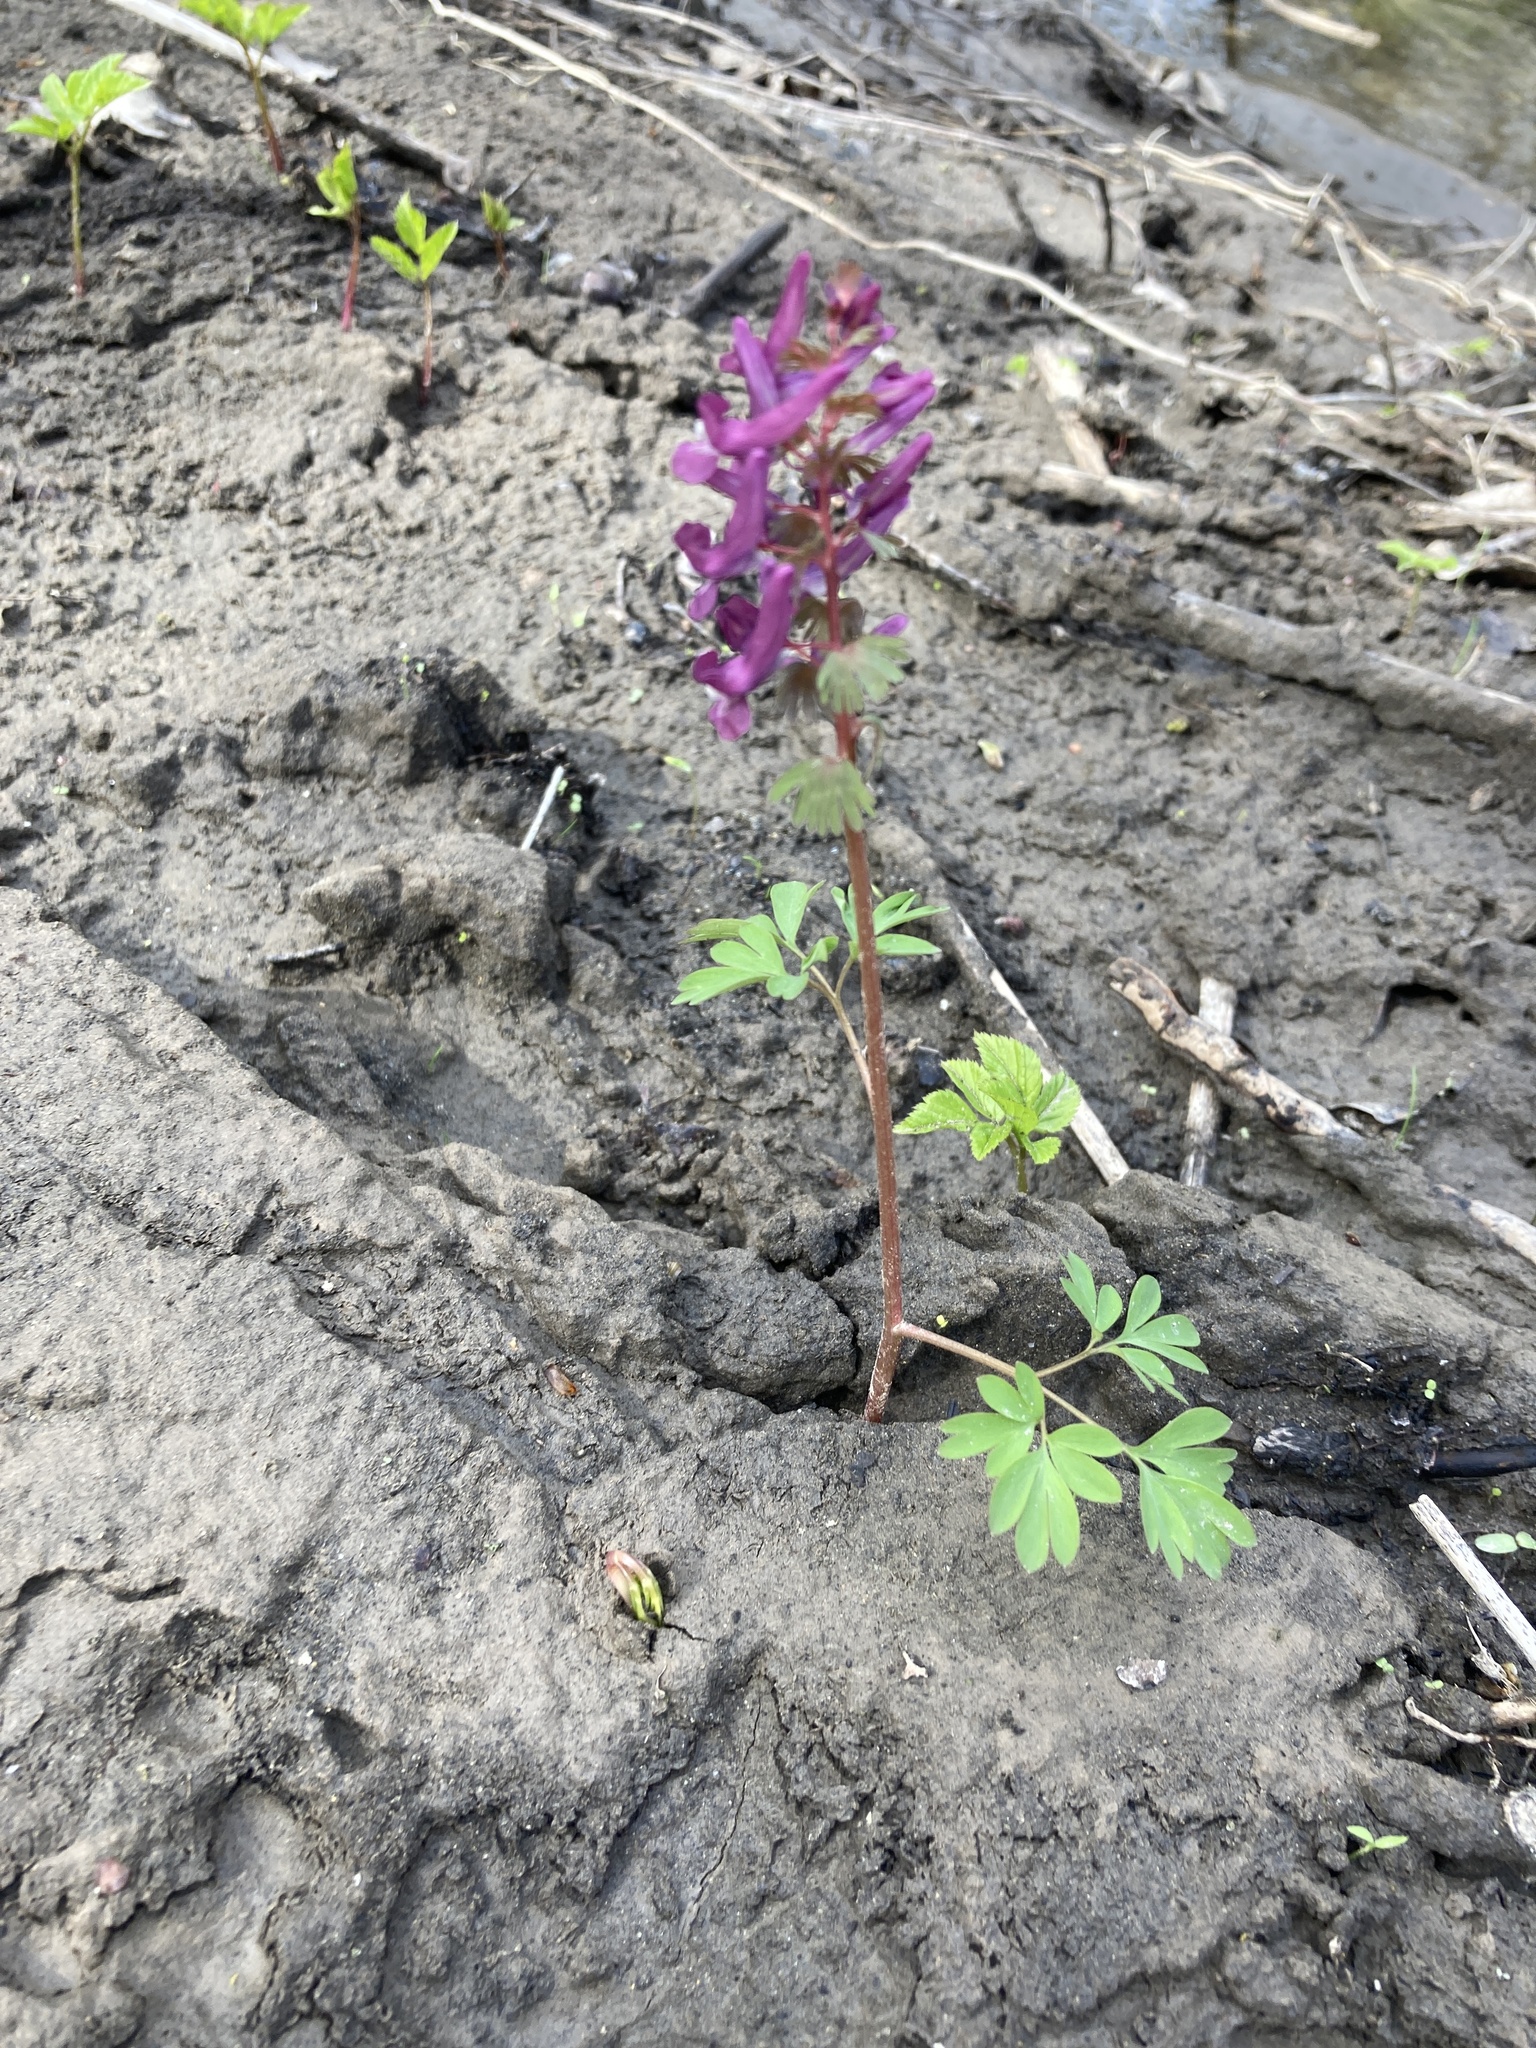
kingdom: Plantae
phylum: Tracheophyta
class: Magnoliopsida
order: Ranunculales
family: Papaveraceae
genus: Corydalis
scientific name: Corydalis solida
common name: Bird-in-a-bush
